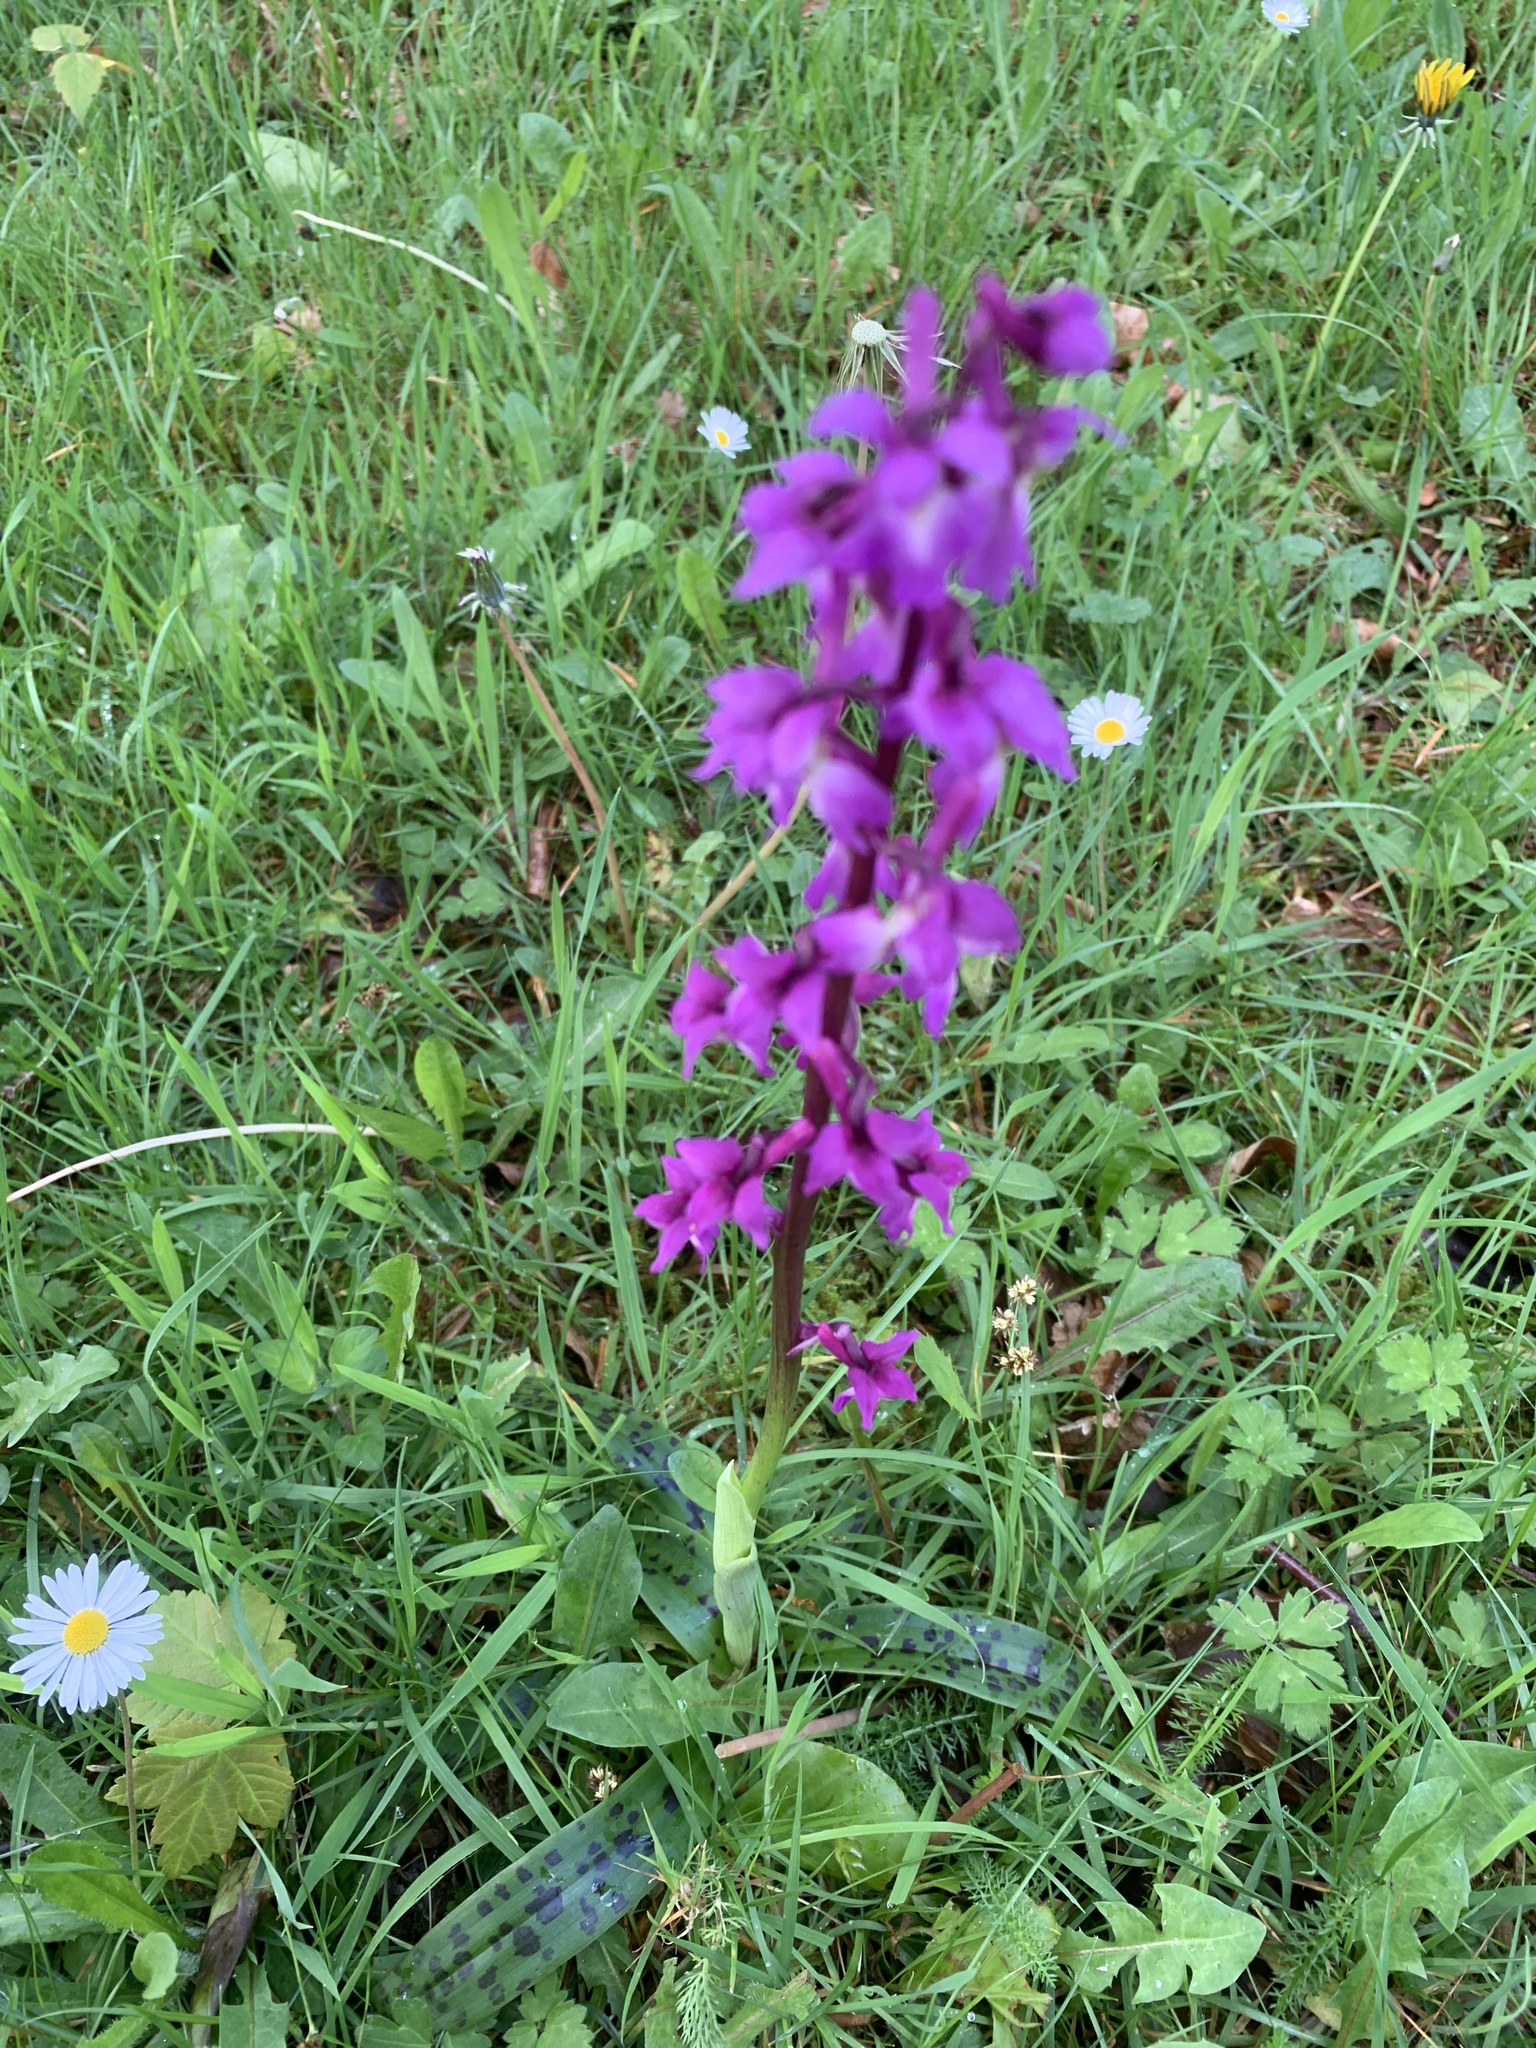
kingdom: Plantae
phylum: Tracheophyta
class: Liliopsida
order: Asparagales
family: Orchidaceae
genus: Orchis
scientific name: Orchis mascula
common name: Early-purple orchid
